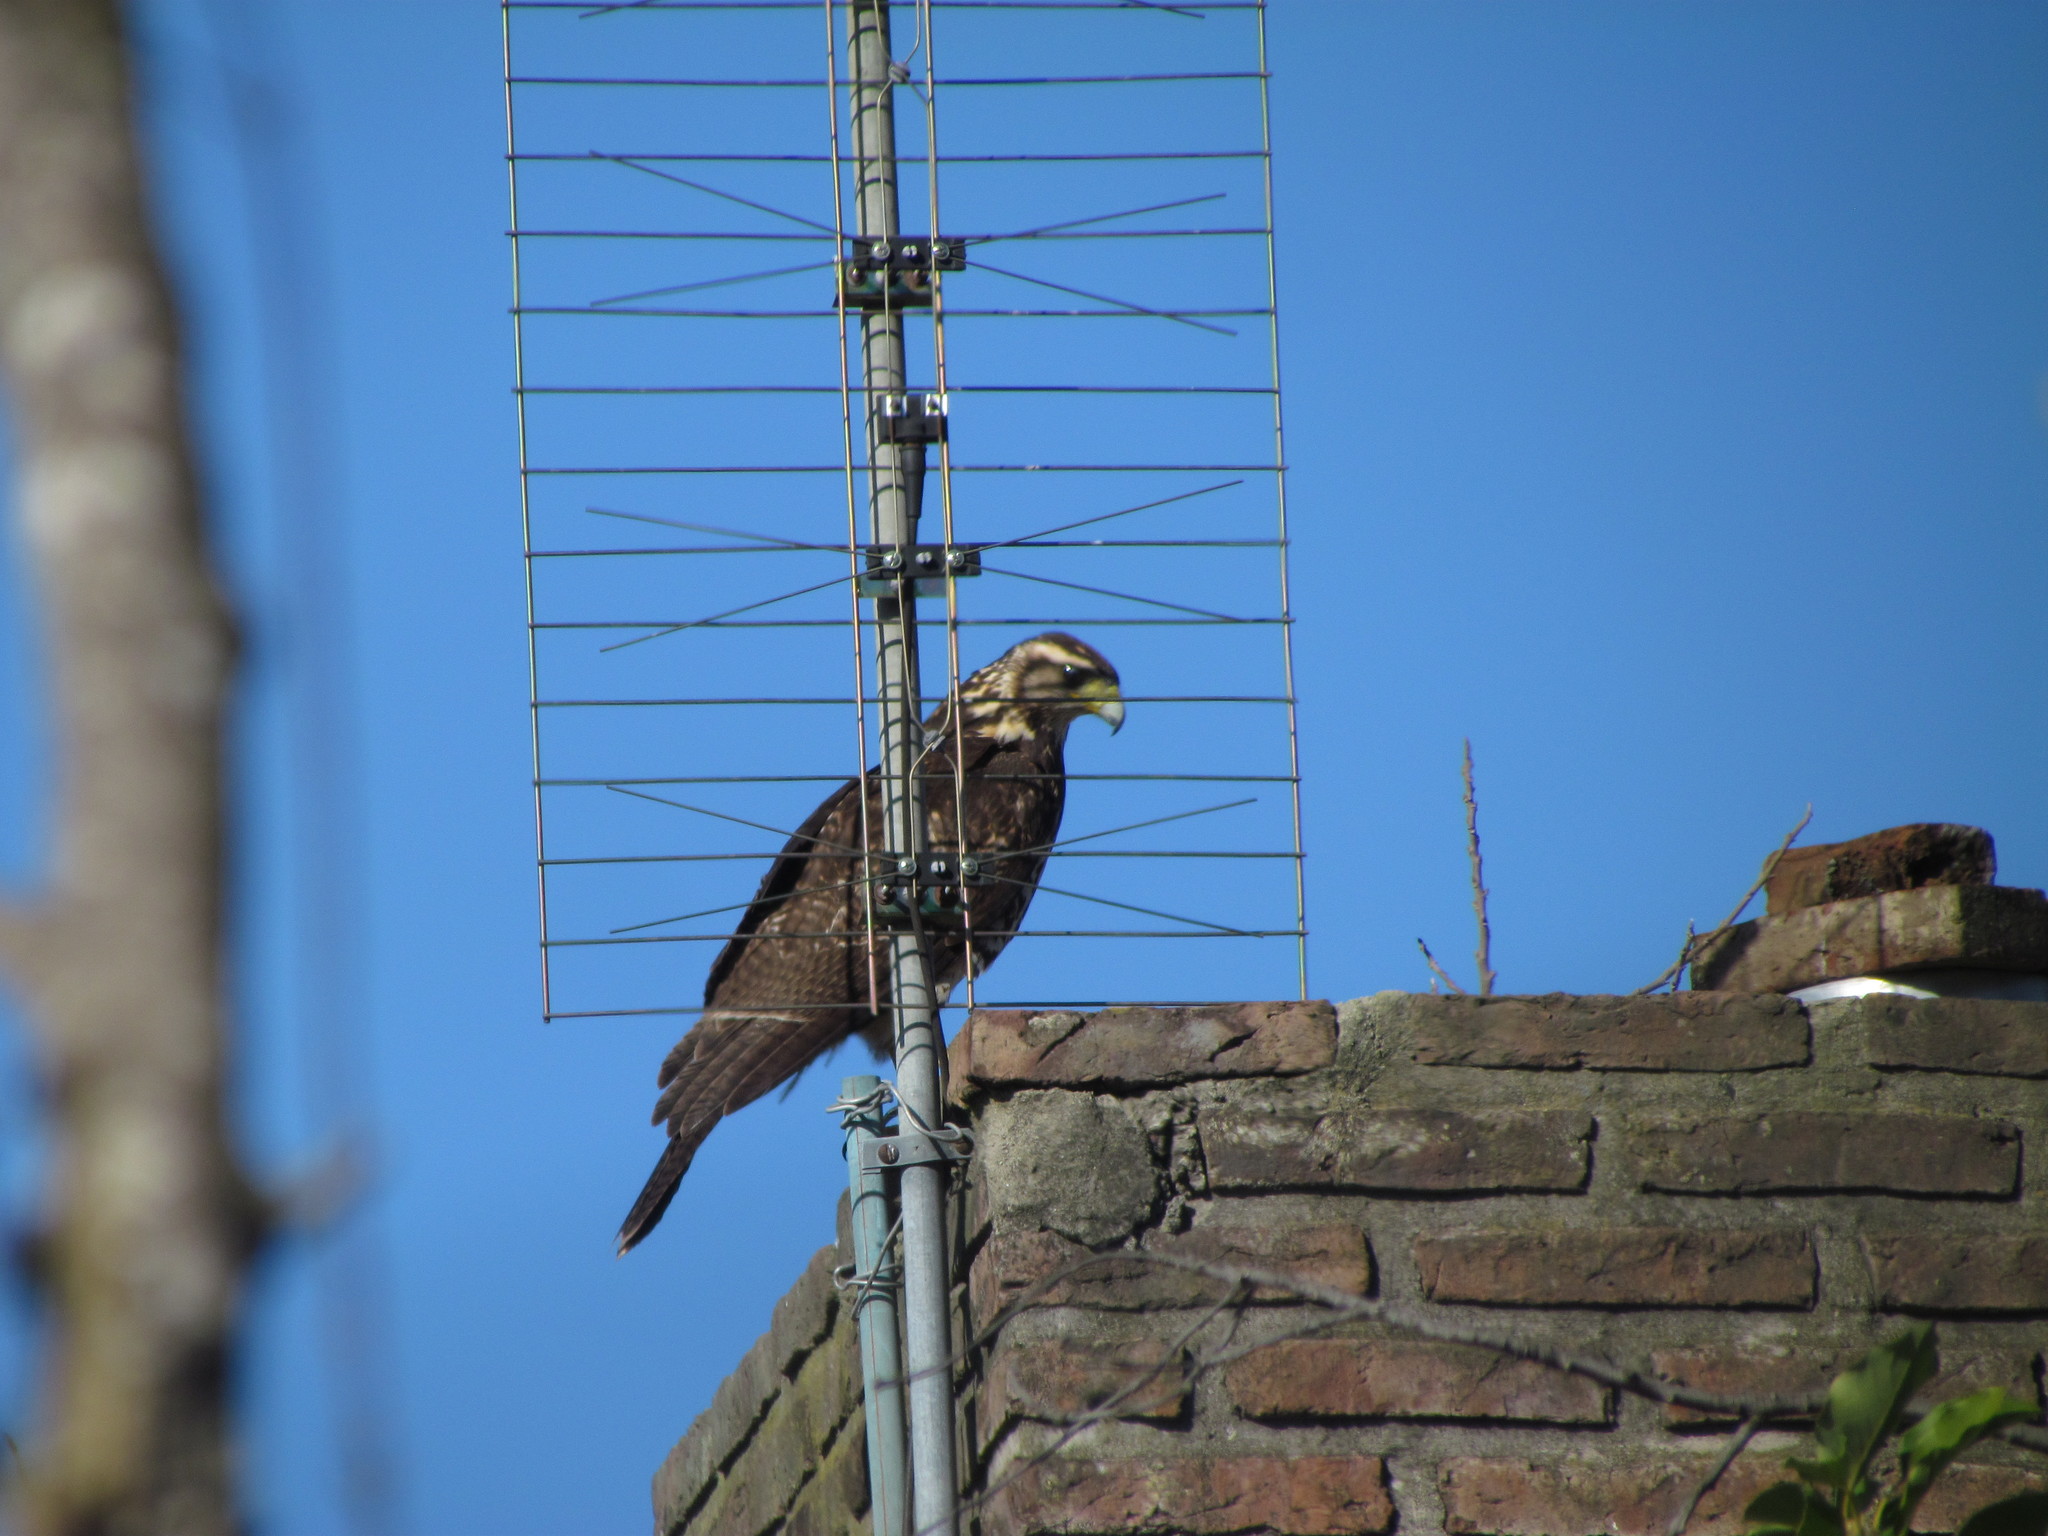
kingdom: Animalia
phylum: Chordata
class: Aves
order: Accipitriformes
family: Accipitridae
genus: Parabuteo
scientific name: Parabuteo unicinctus
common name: Harris's hawk
